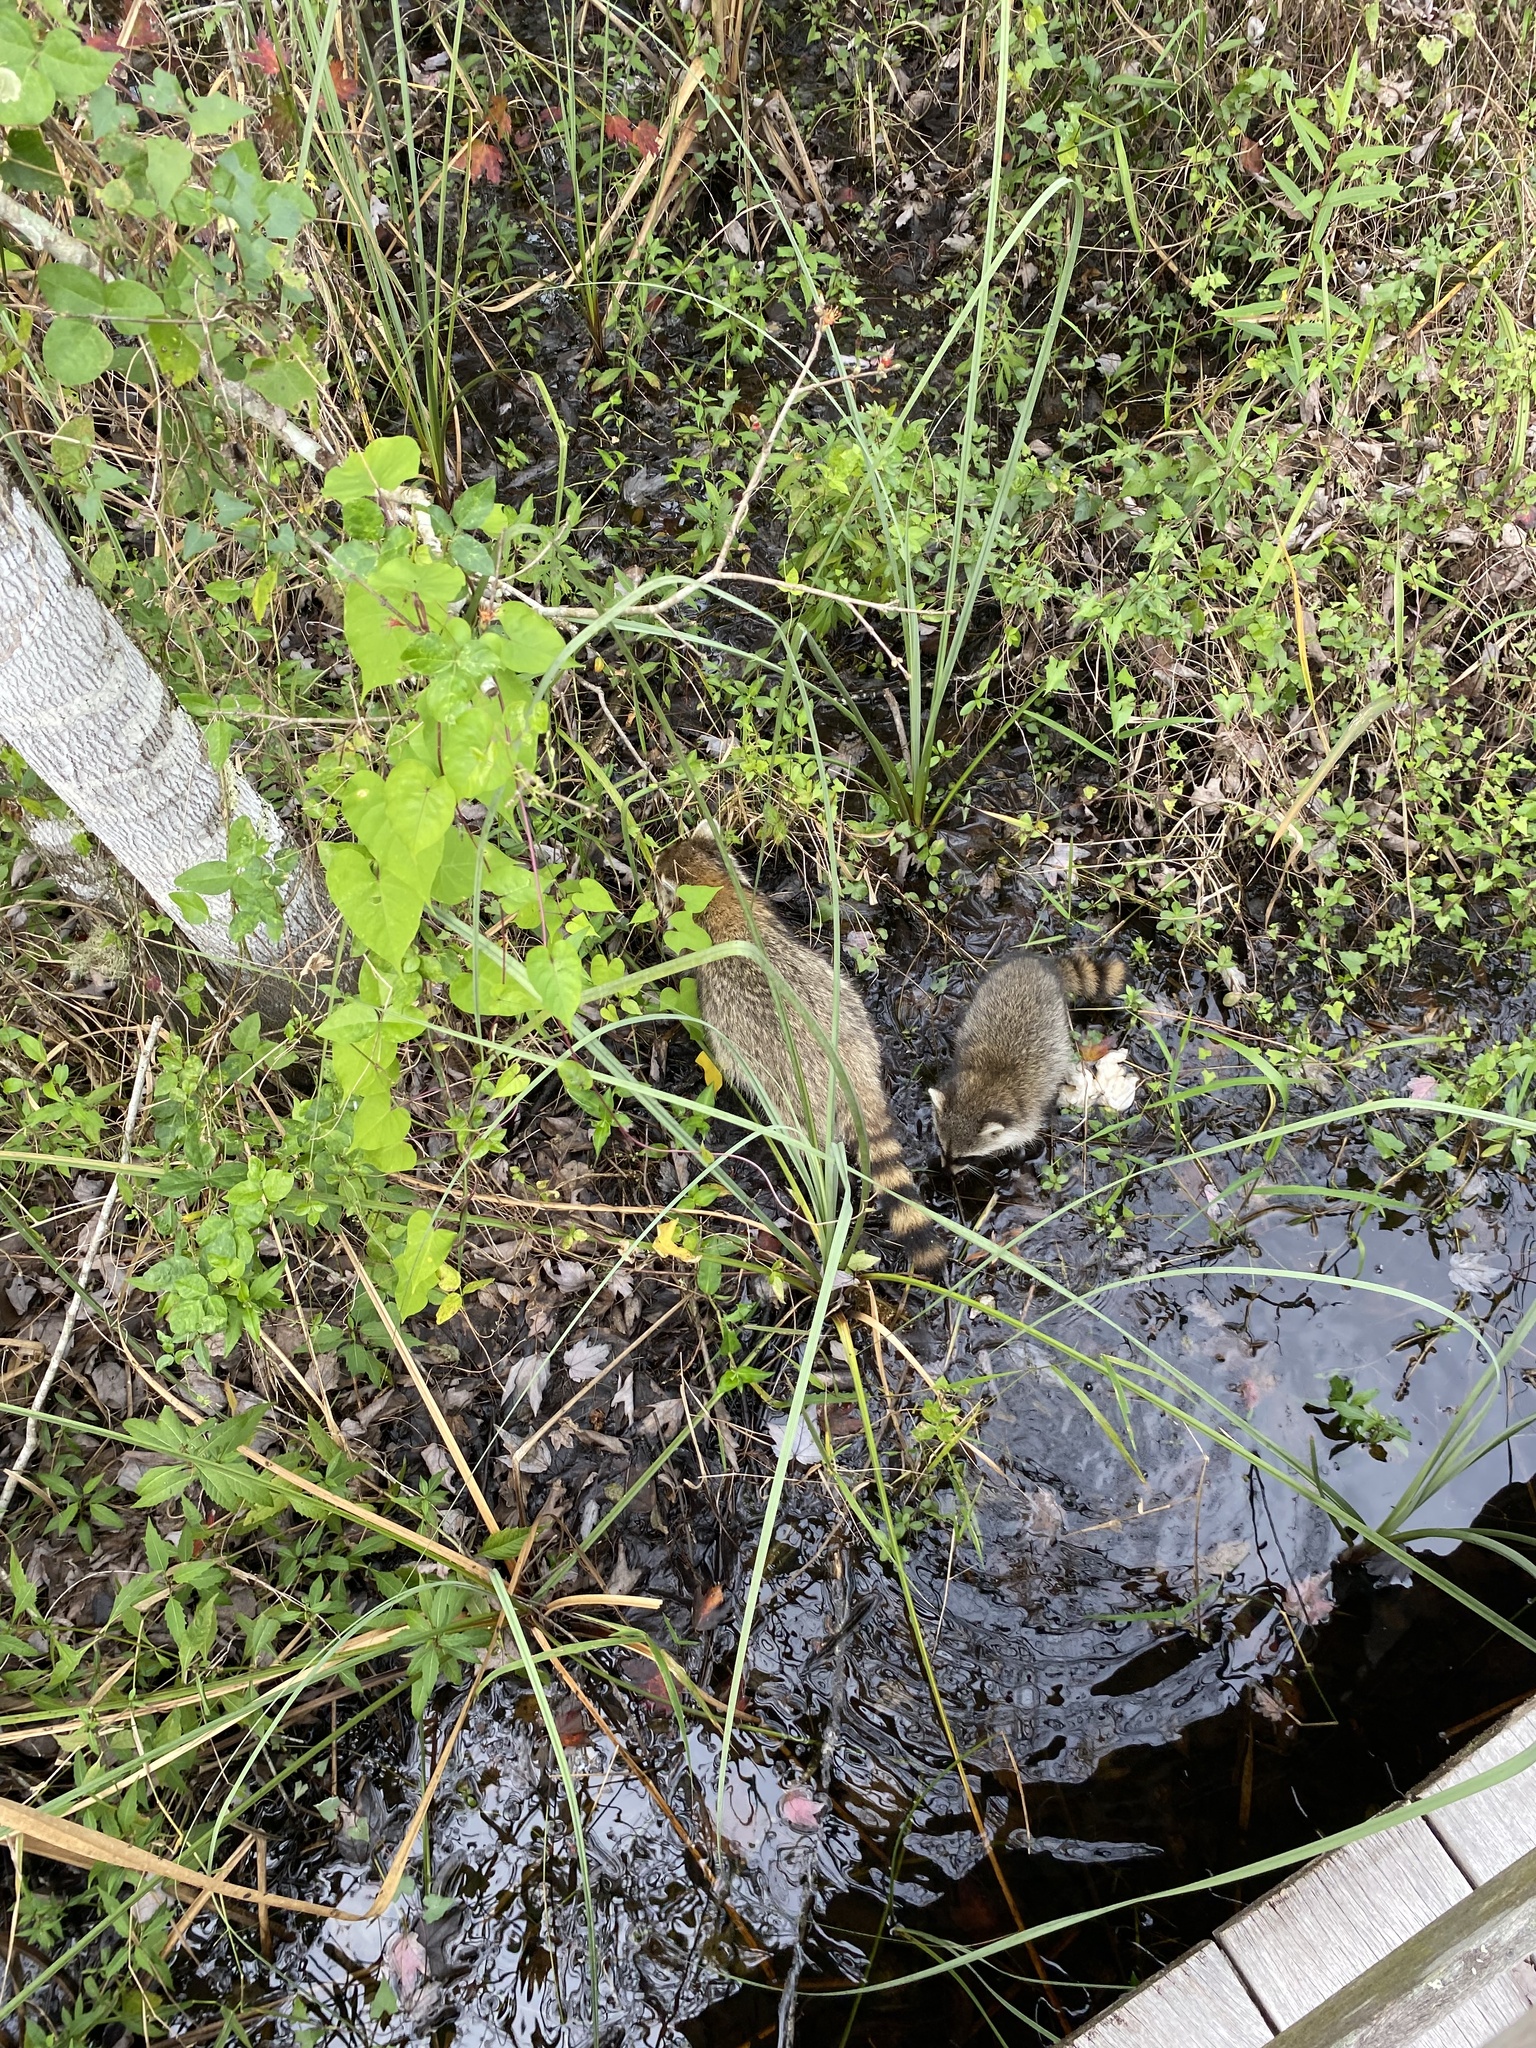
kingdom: Animalia
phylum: Chordata
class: Mammalia
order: Carnivora
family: Procyonidae
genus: Procyon
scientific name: Procyon lotor
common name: Raccoon
